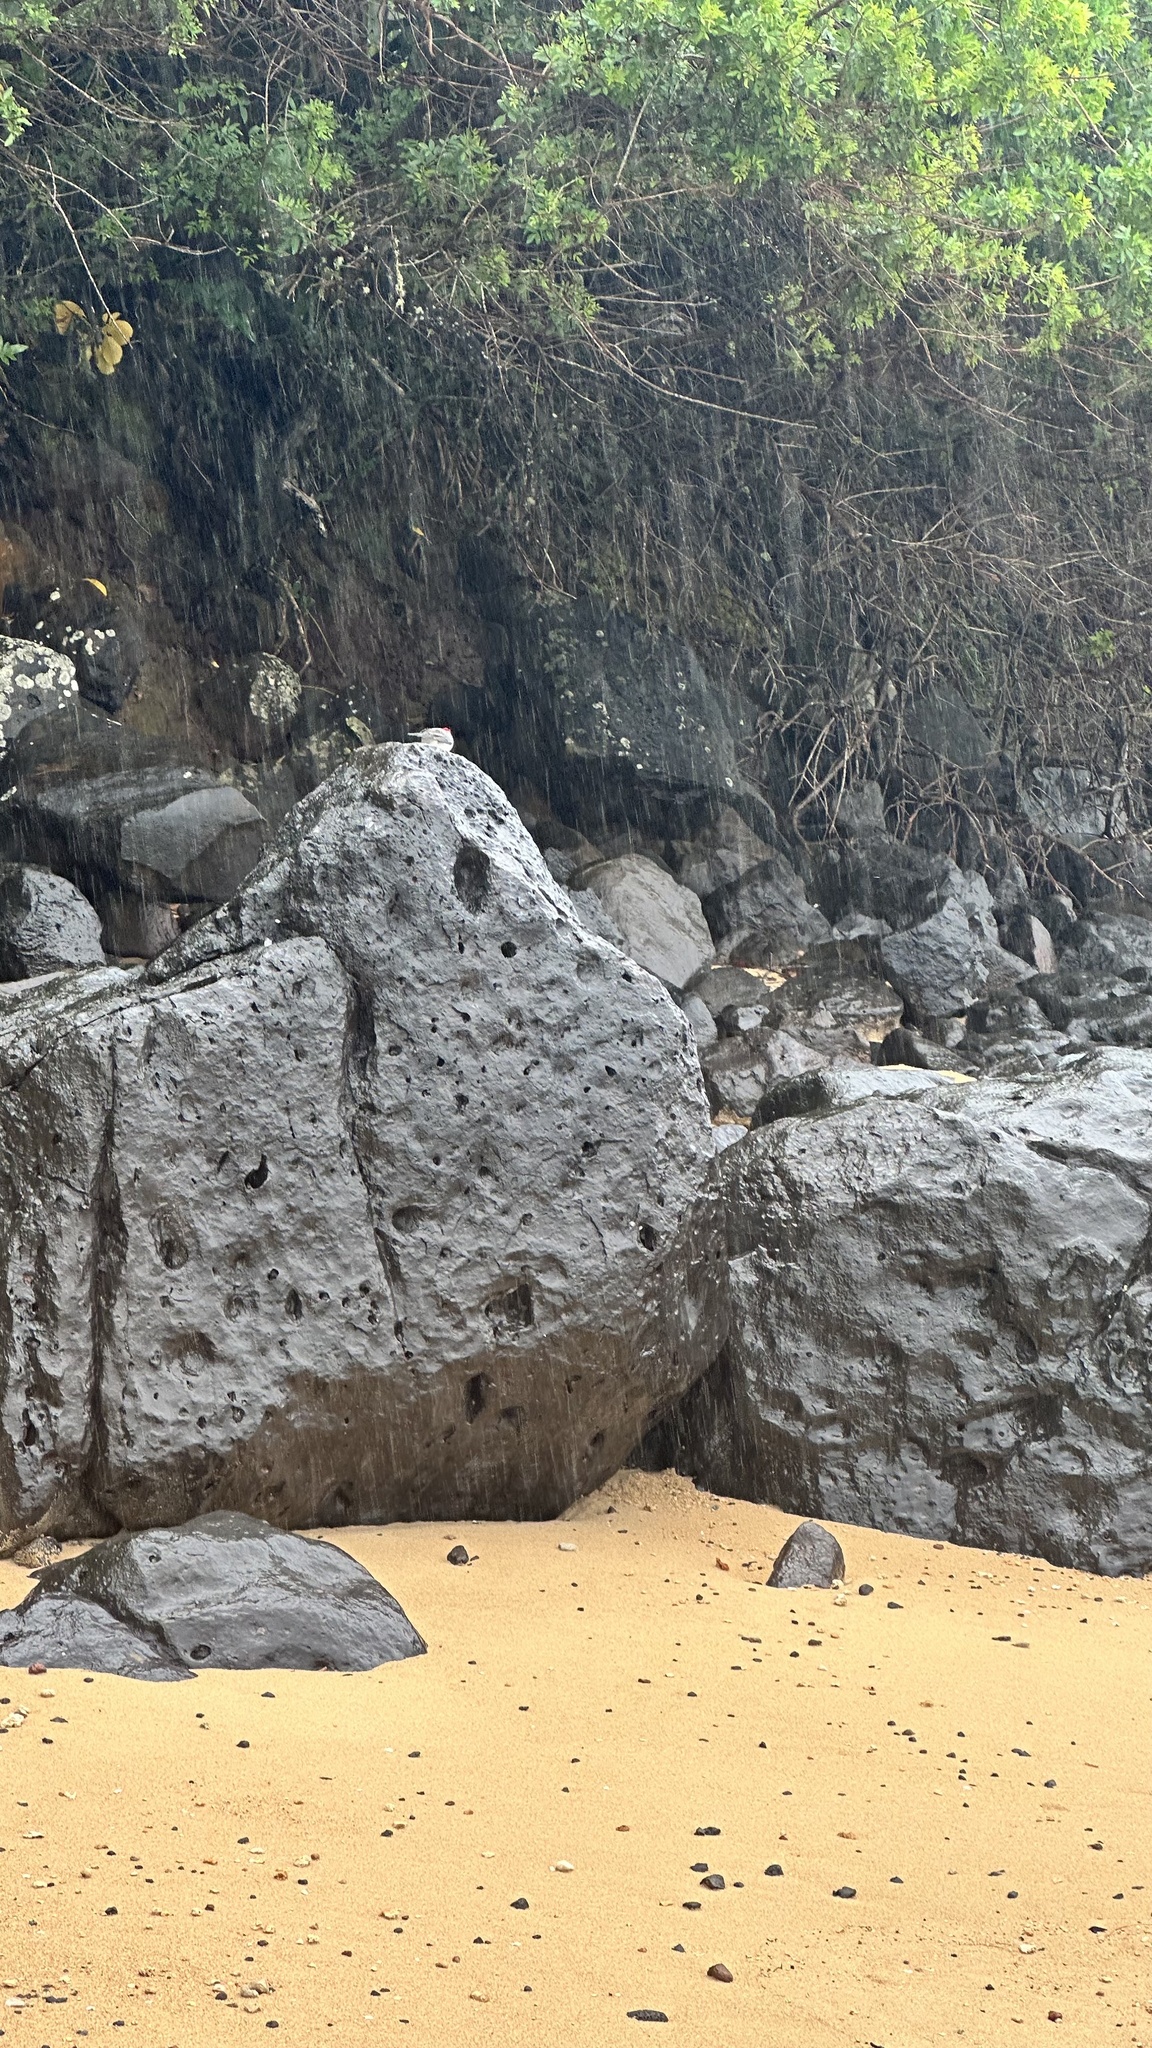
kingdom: Animalia
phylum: Chordata
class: Aves
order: Passeriformes
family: Thraupidae
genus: Paroaria
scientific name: Paroaria coronata
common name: Red-crested cardinal
